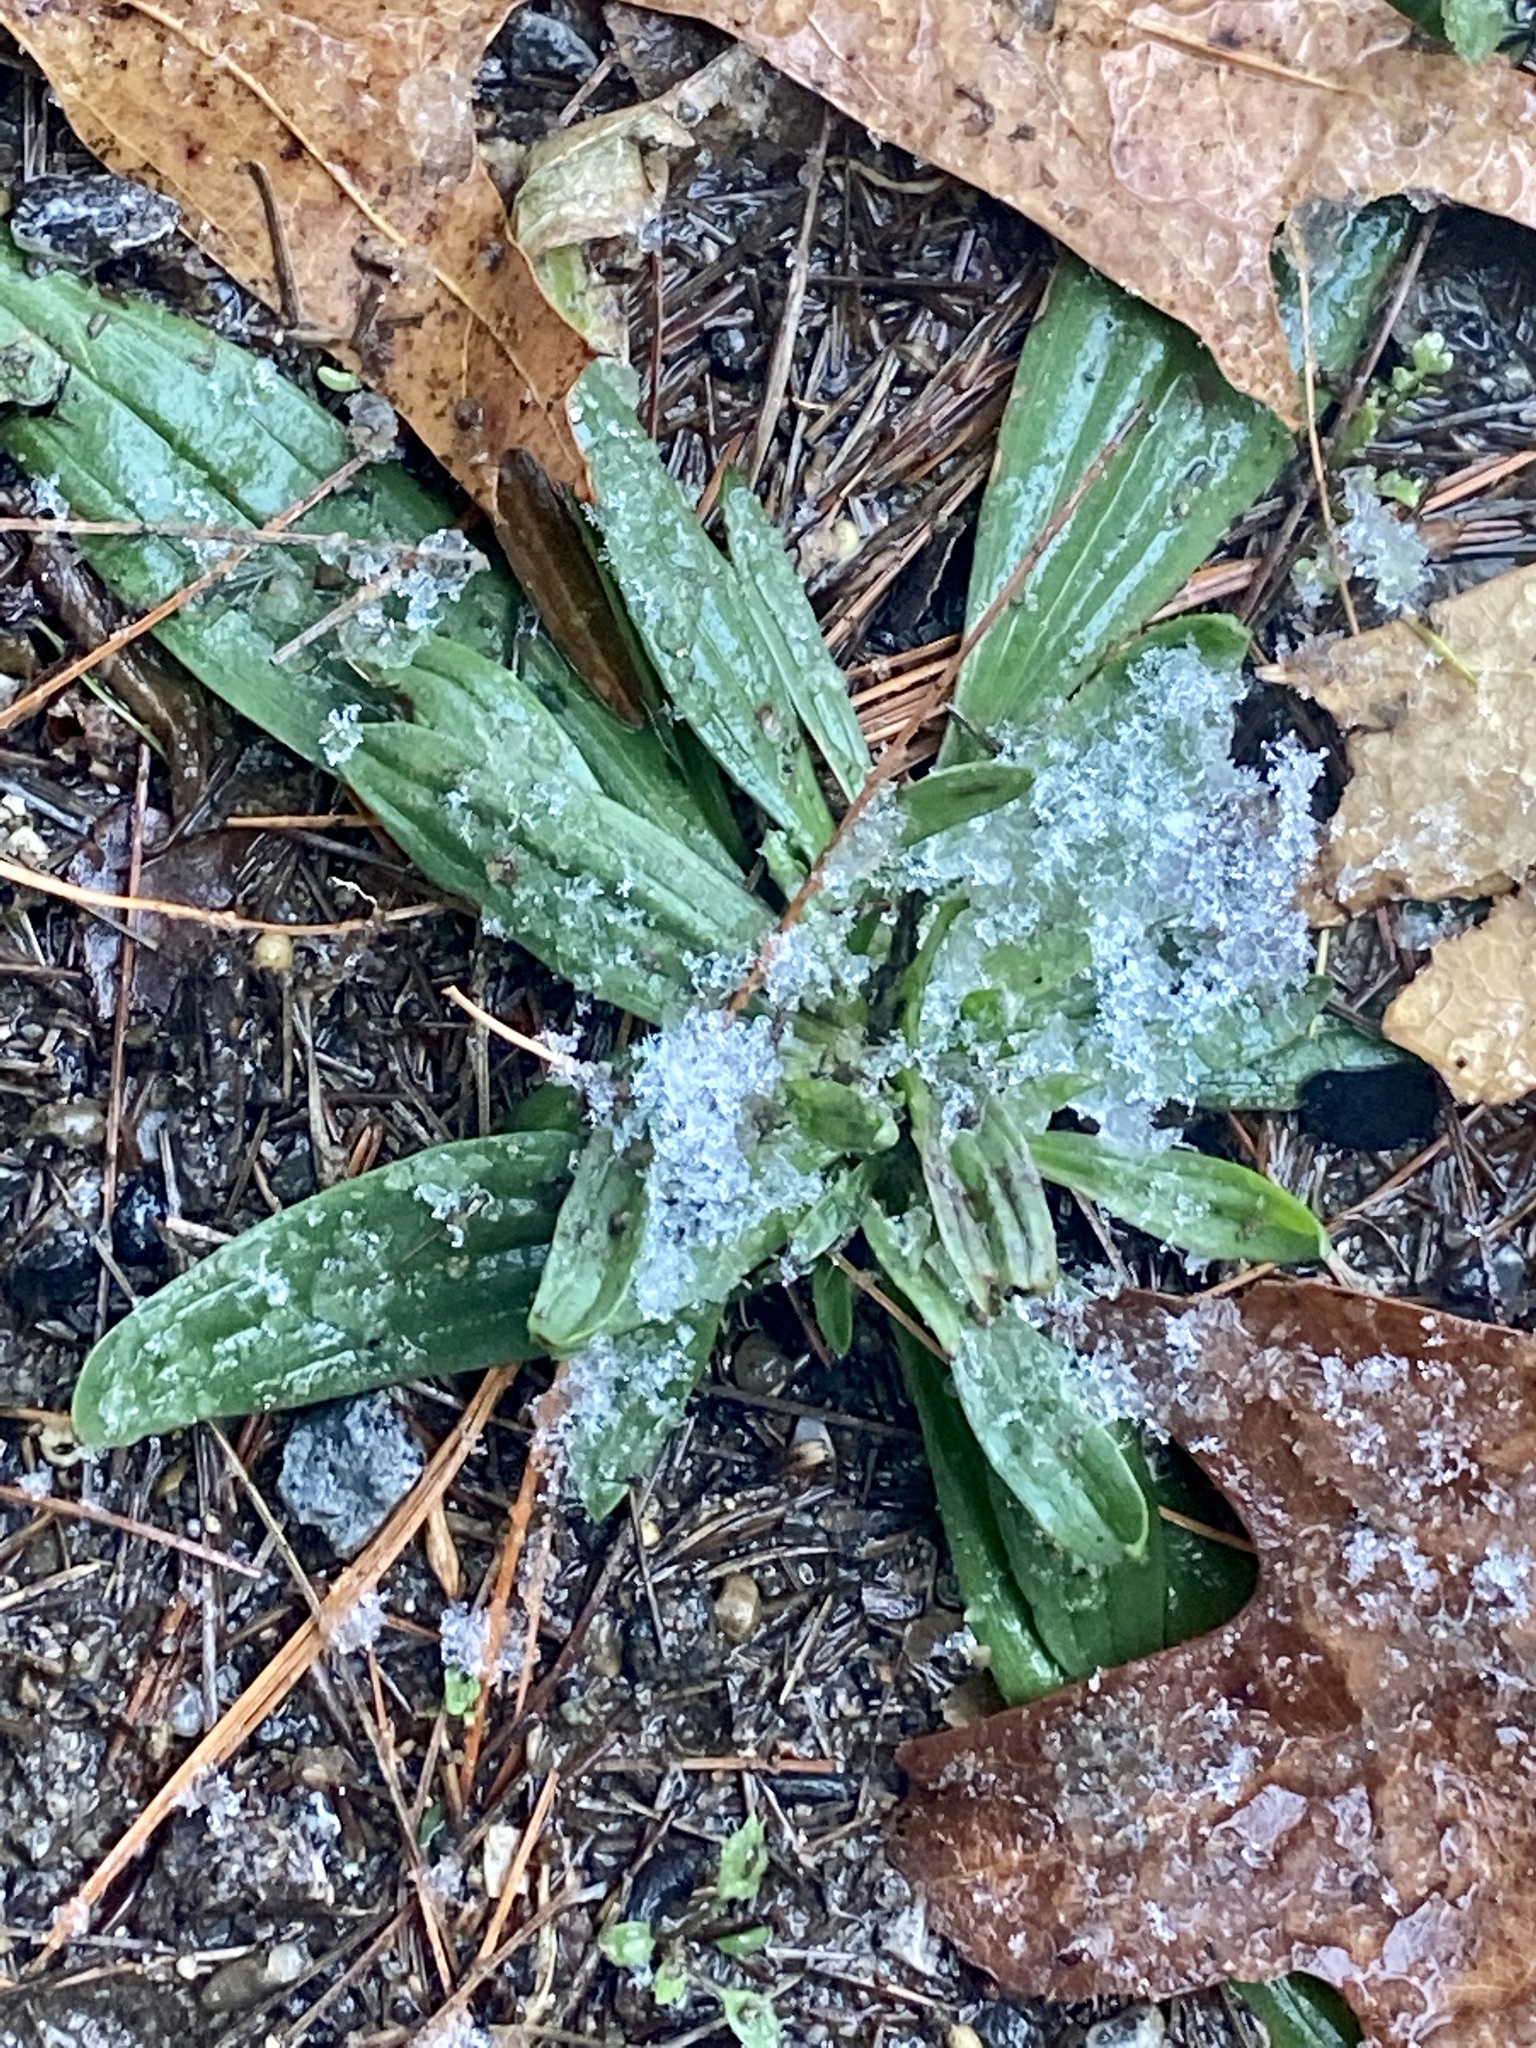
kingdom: Plantae
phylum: Tracheophyta
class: Magnoliopsida
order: Lamiales
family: Plantaginaceae
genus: Plantago
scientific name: Plantago lanceolata
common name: Ribwort plantain
